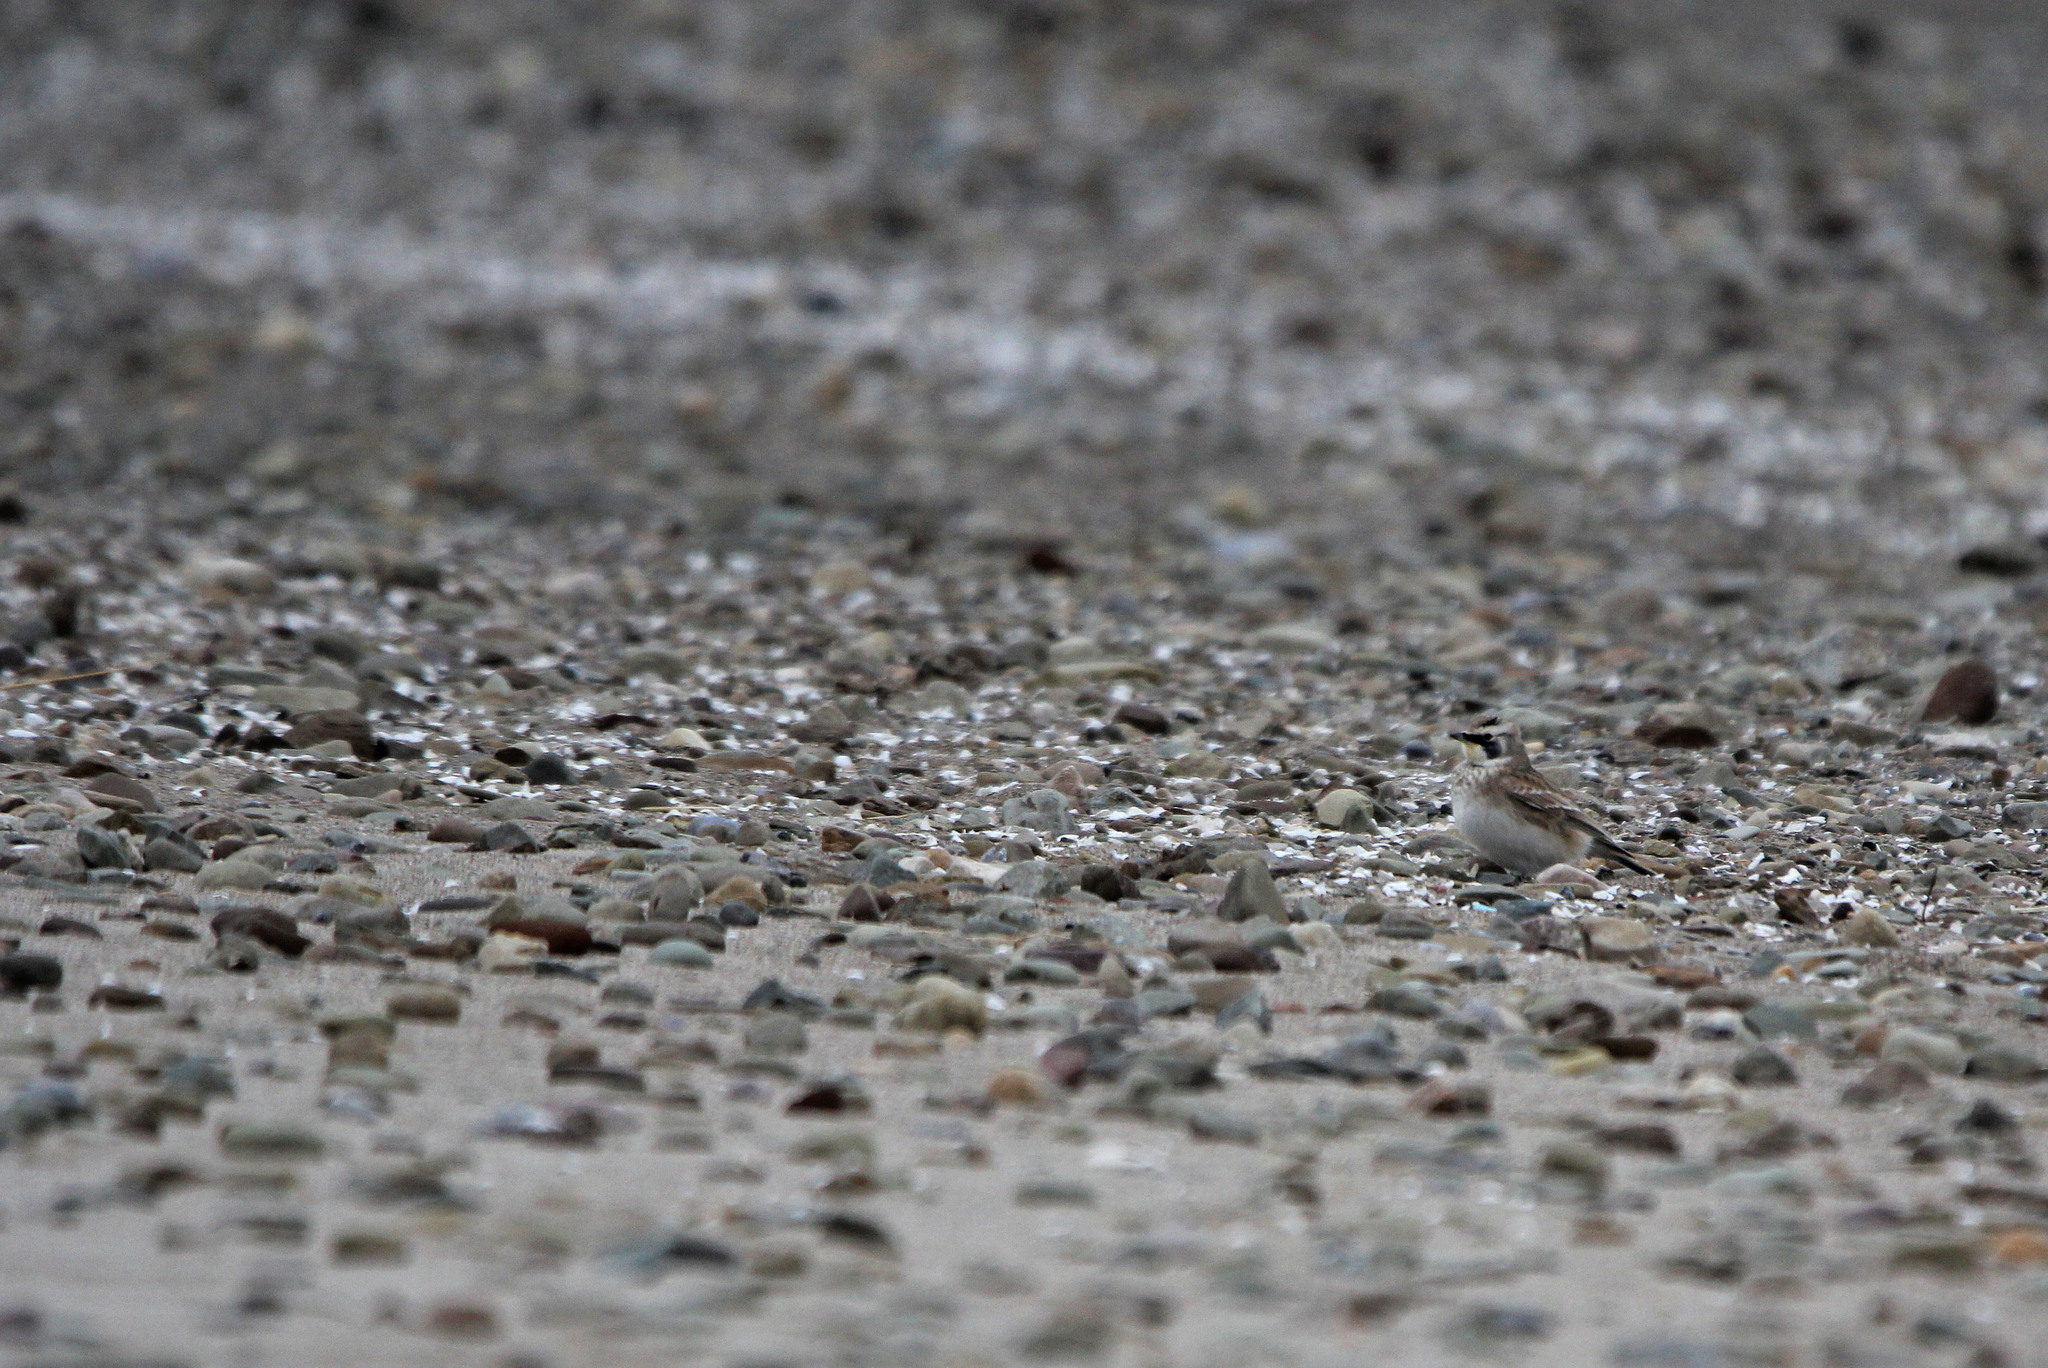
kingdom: Animalia
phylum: Chordata
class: Aves
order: Passeriformes
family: Alaudidae
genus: Eremophila
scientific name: Eremophila alpestris
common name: Horned lark
